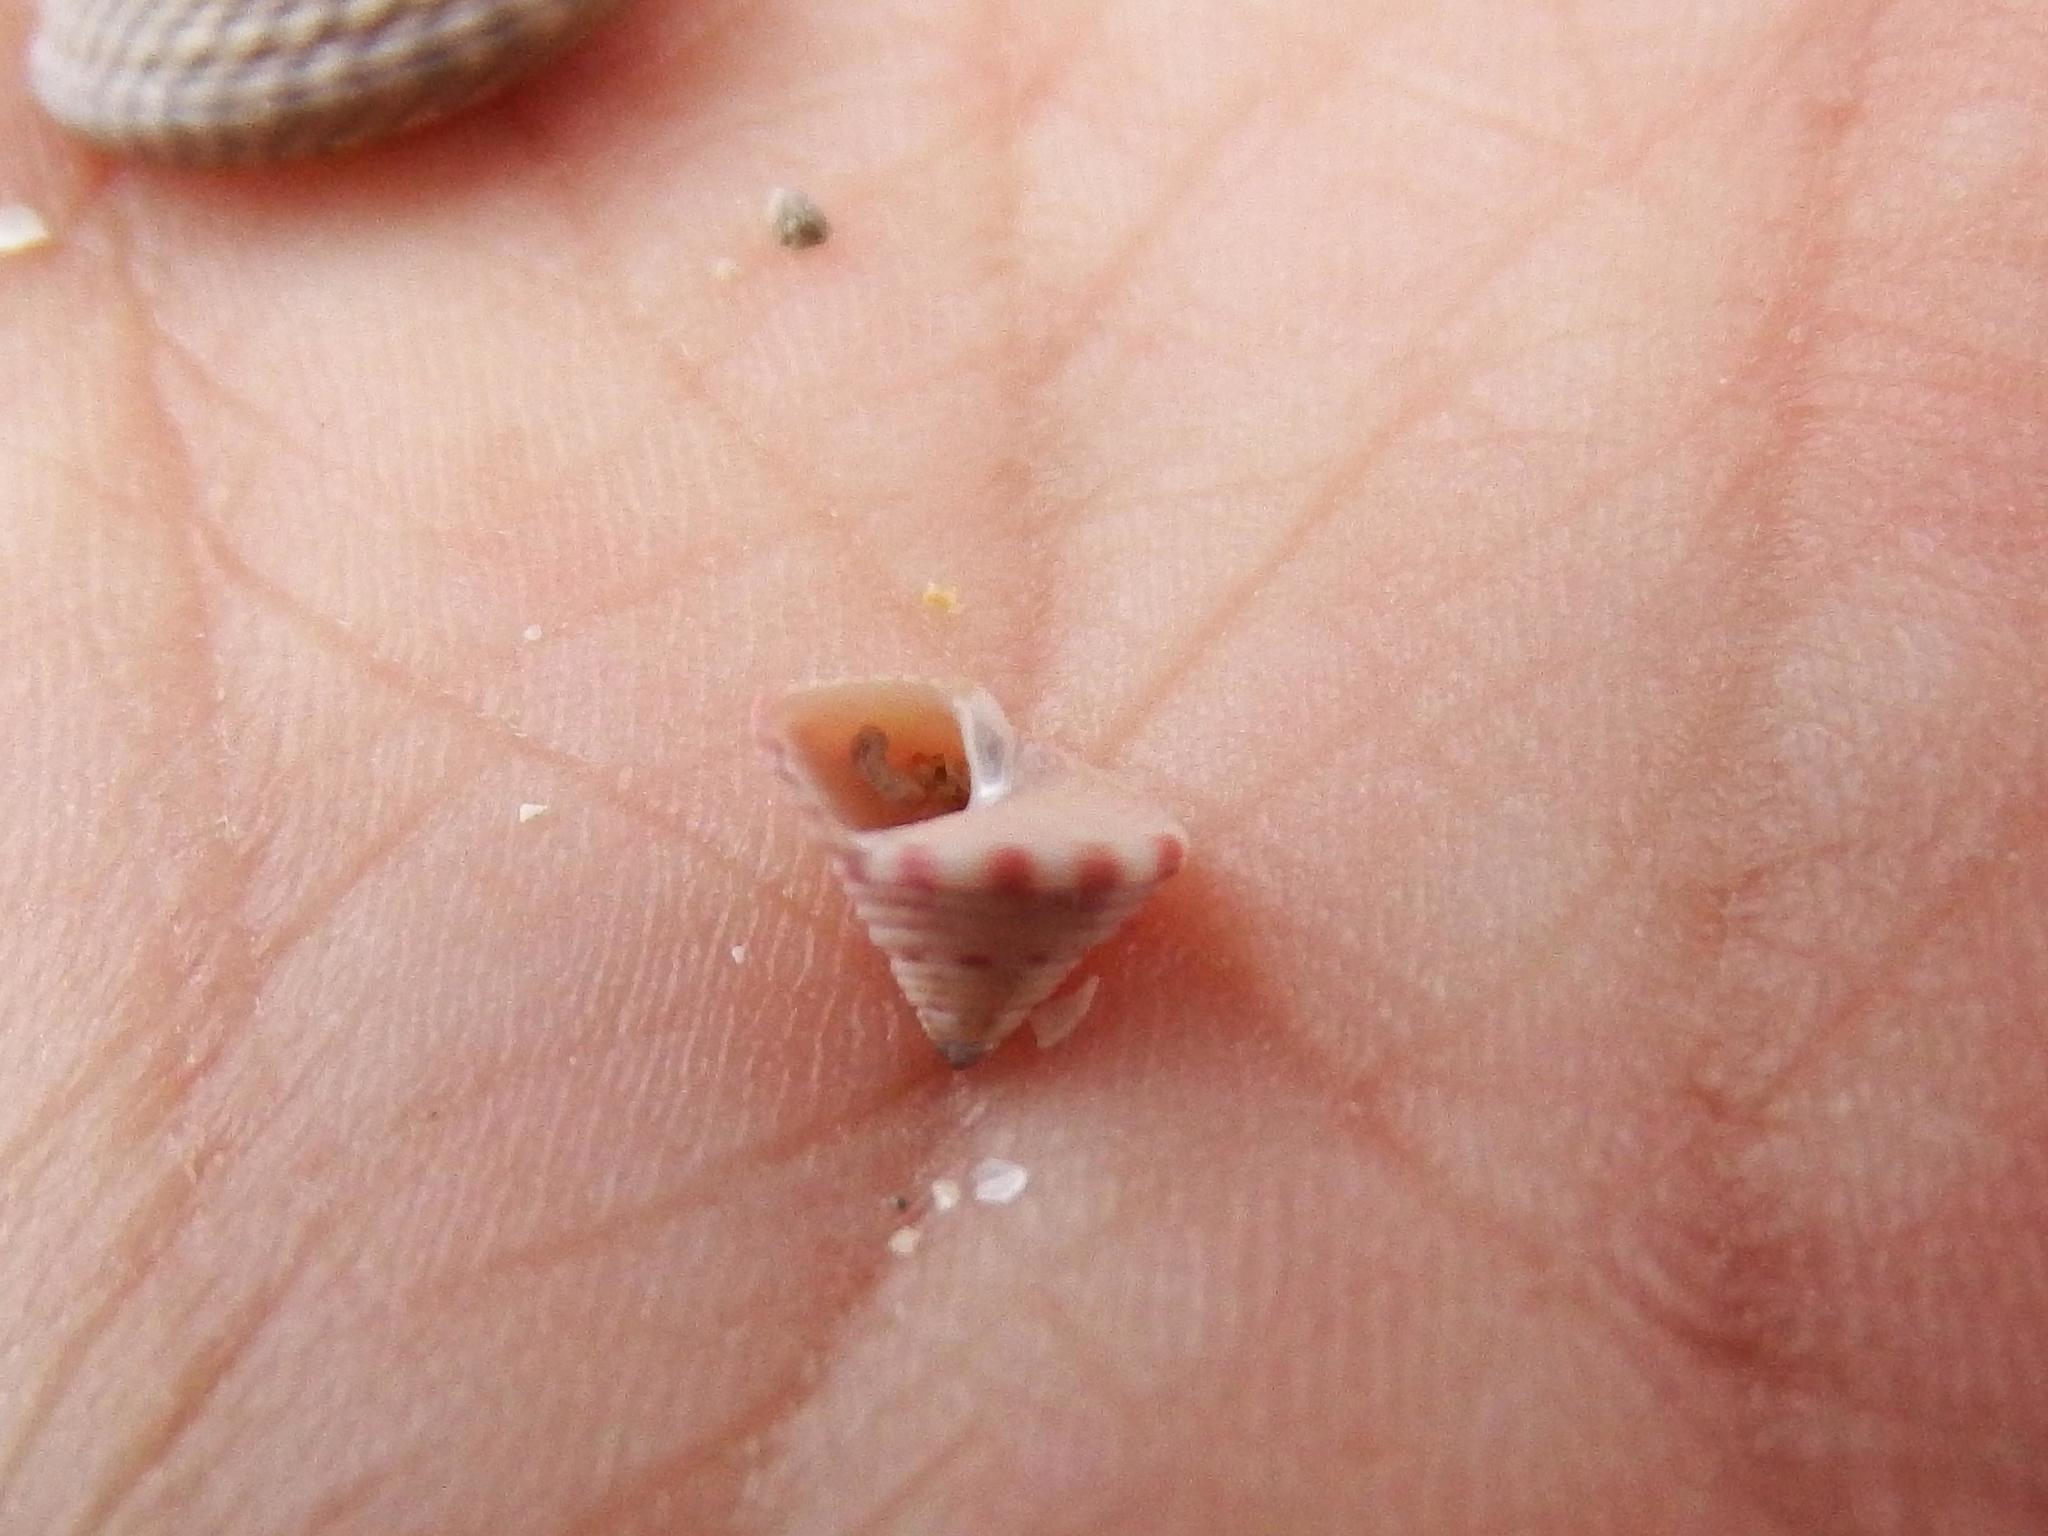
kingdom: Animalia
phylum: Mollusca
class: Gastropoda
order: Trochida
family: Calliostomatidae
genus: Calliostoma
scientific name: Calliostoma zizyphinum
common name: Painted top shell
